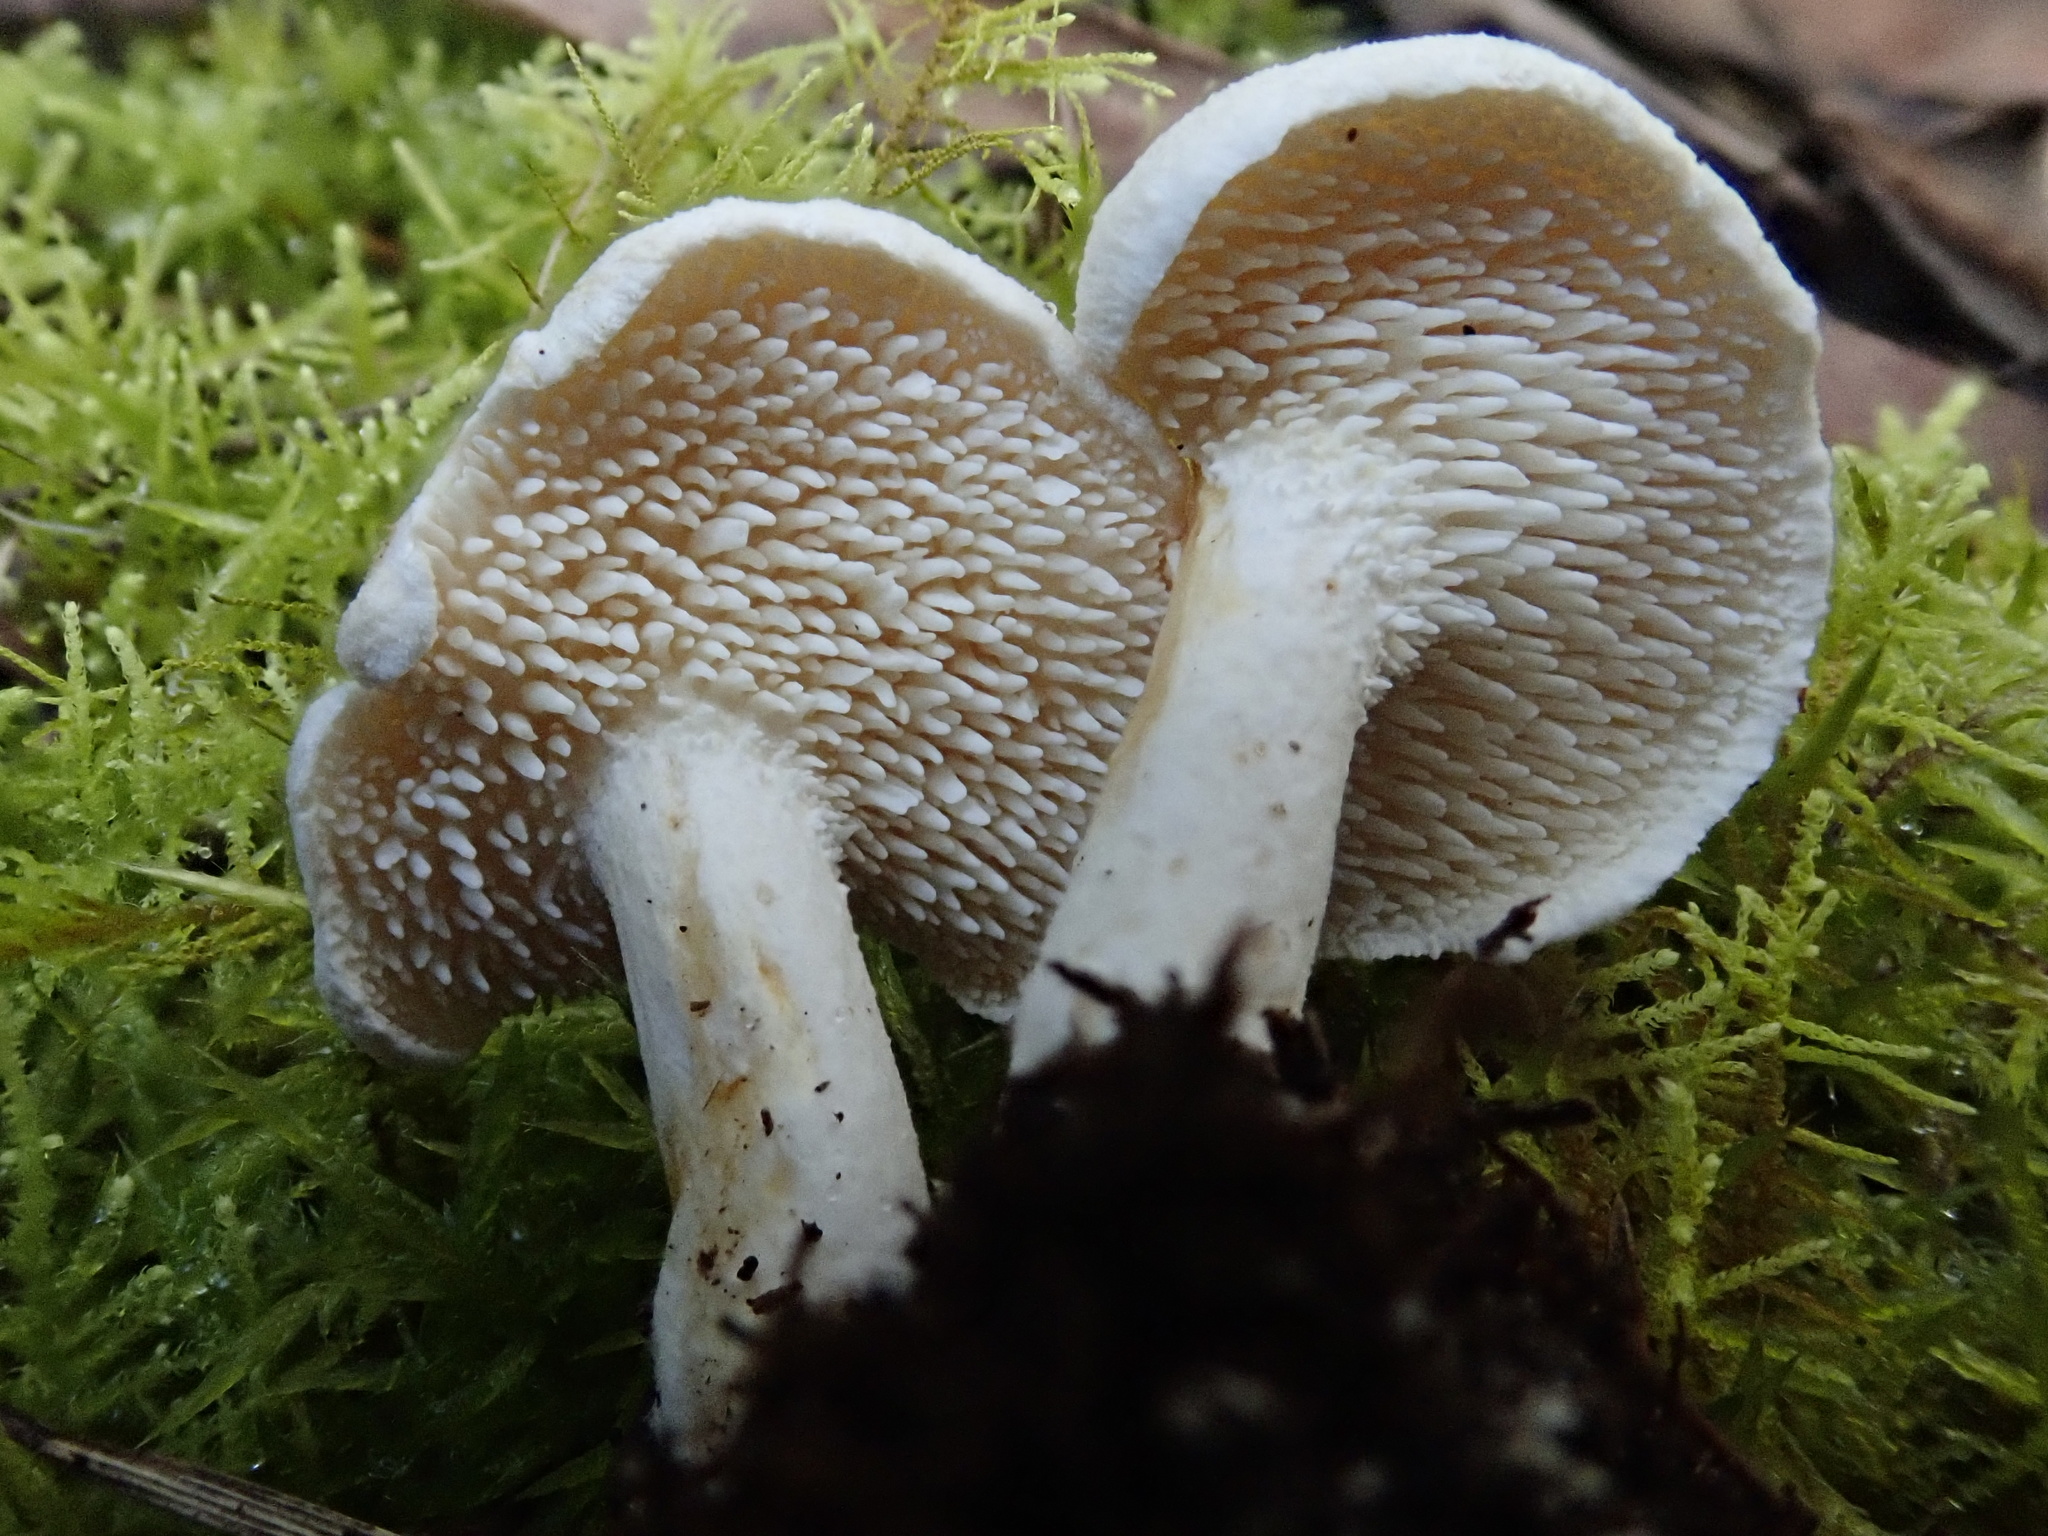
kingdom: Fungi
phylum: Basidiomycota
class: Agaricomycetes
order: Cantharellales
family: Hydnaceae
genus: Hydnum
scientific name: Hydnum repandum
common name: Wood hedgehog
